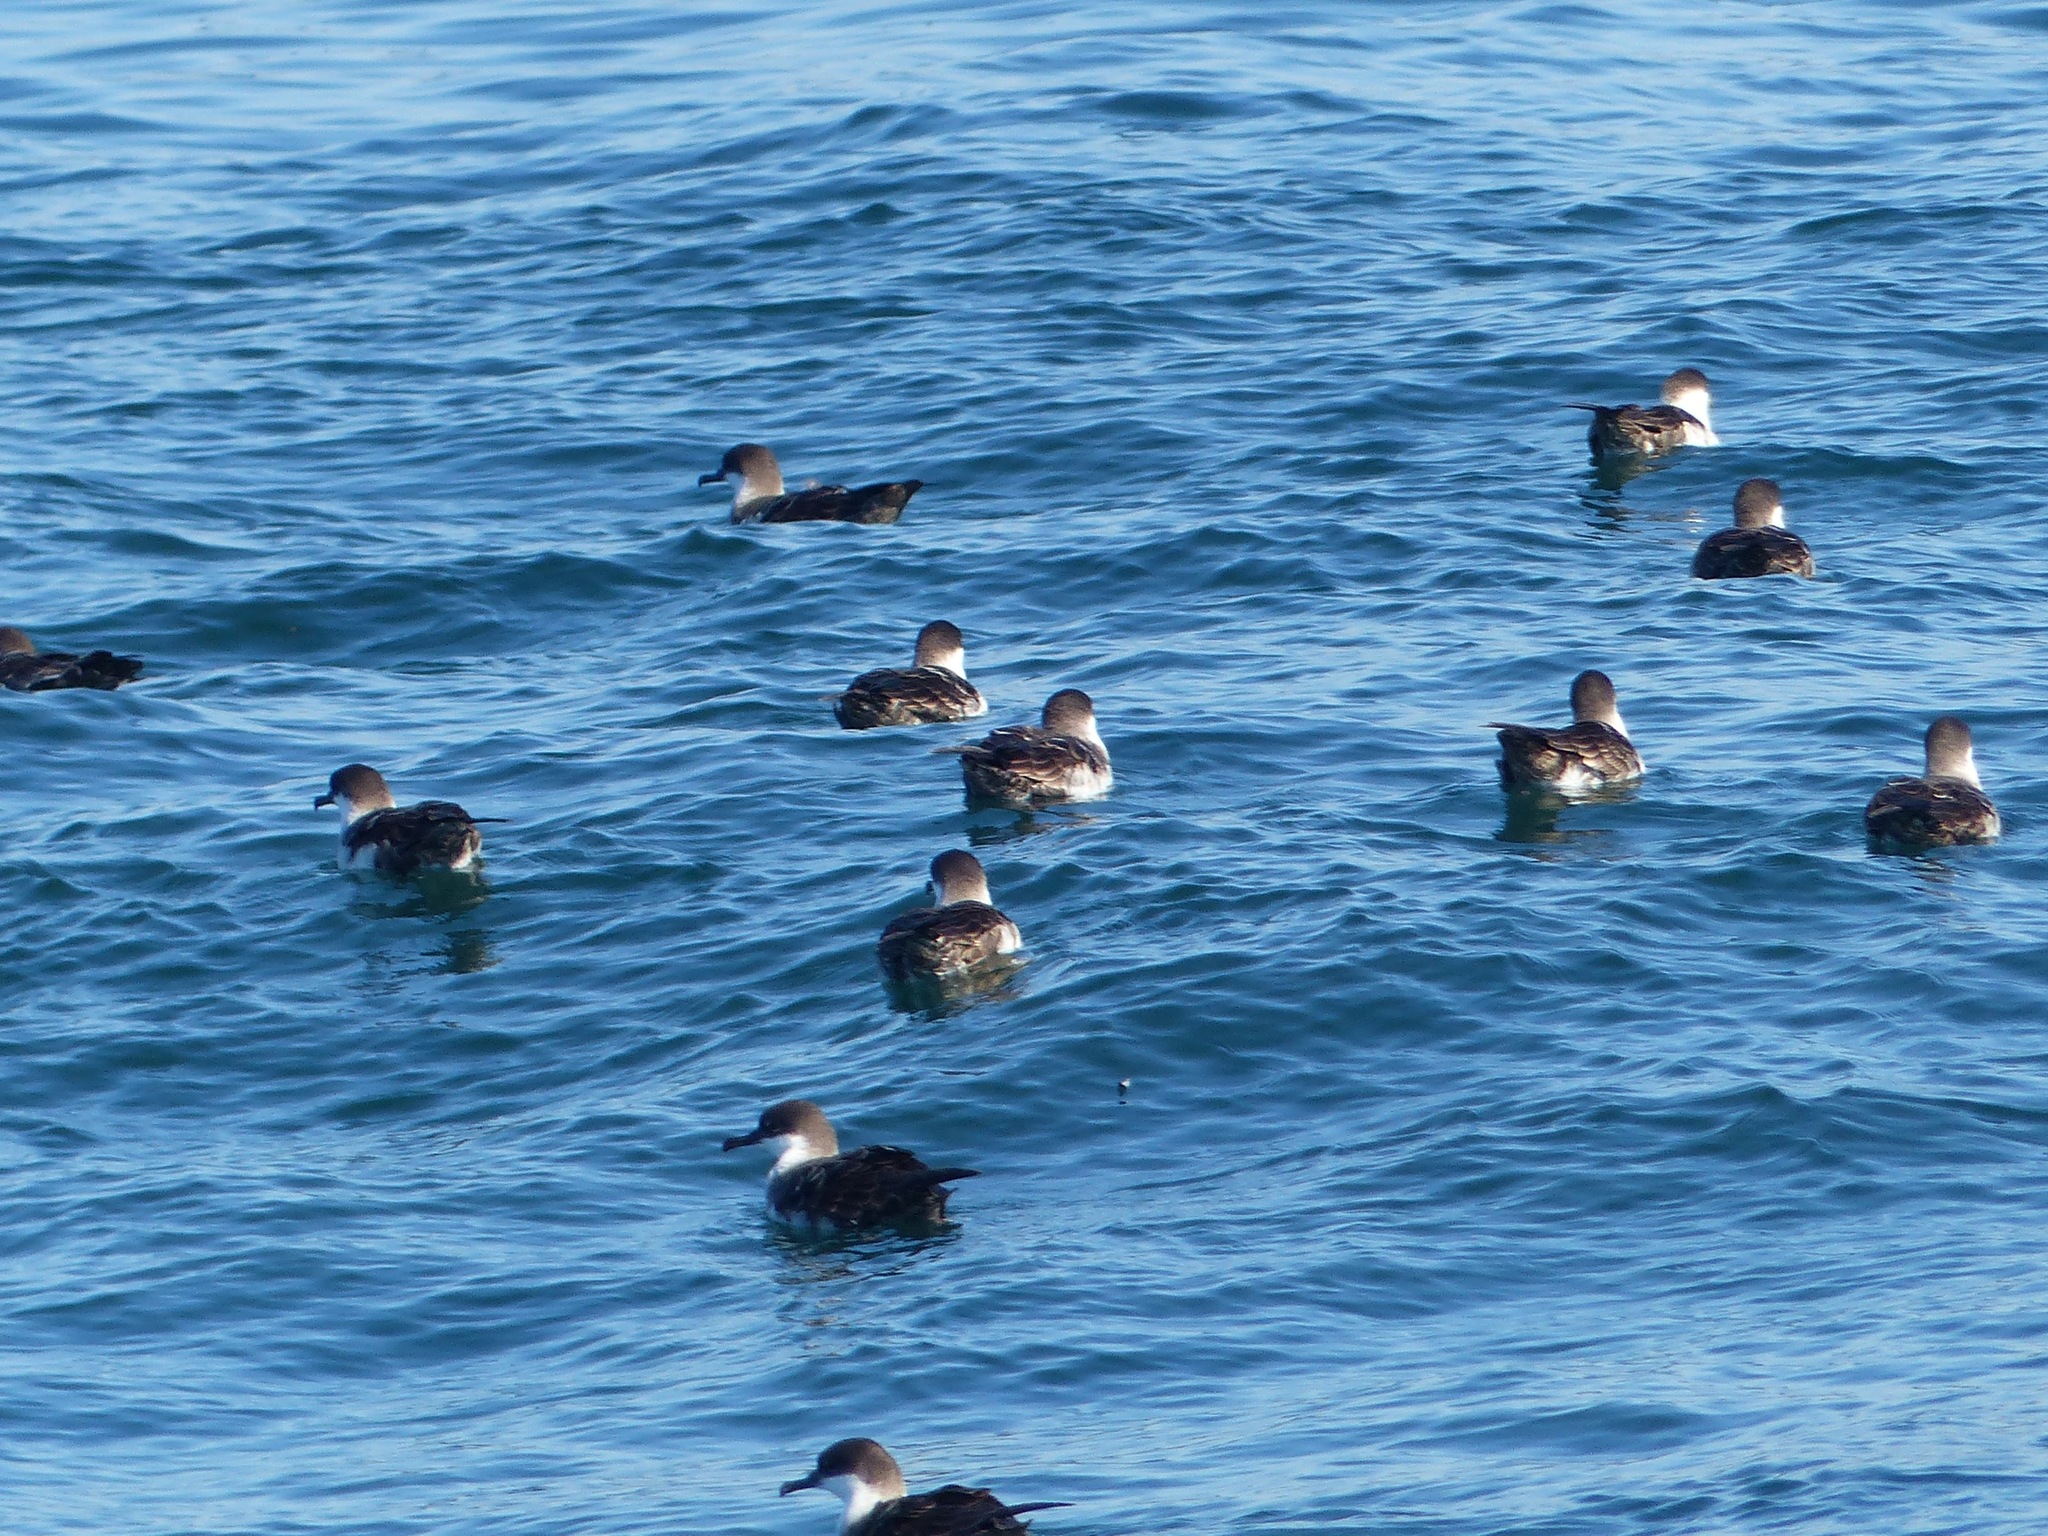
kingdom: Animalia
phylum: Chordata
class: Aves
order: Procellariiformes
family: Procellariidae
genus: Puffinus
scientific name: Puffinus gravis
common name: Great shearwater
